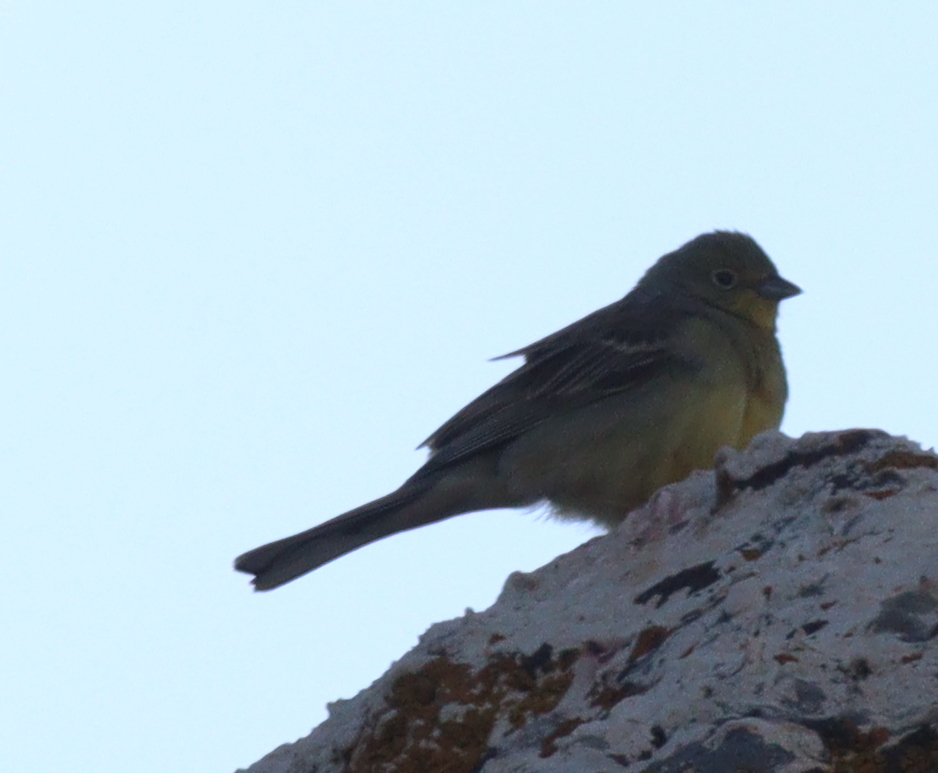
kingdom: Animalia
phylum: Chordata
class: Aves
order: Passeriformes
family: Emberizidae
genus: Emberiza
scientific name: Emberiza cineracea
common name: Cinereous bunting
